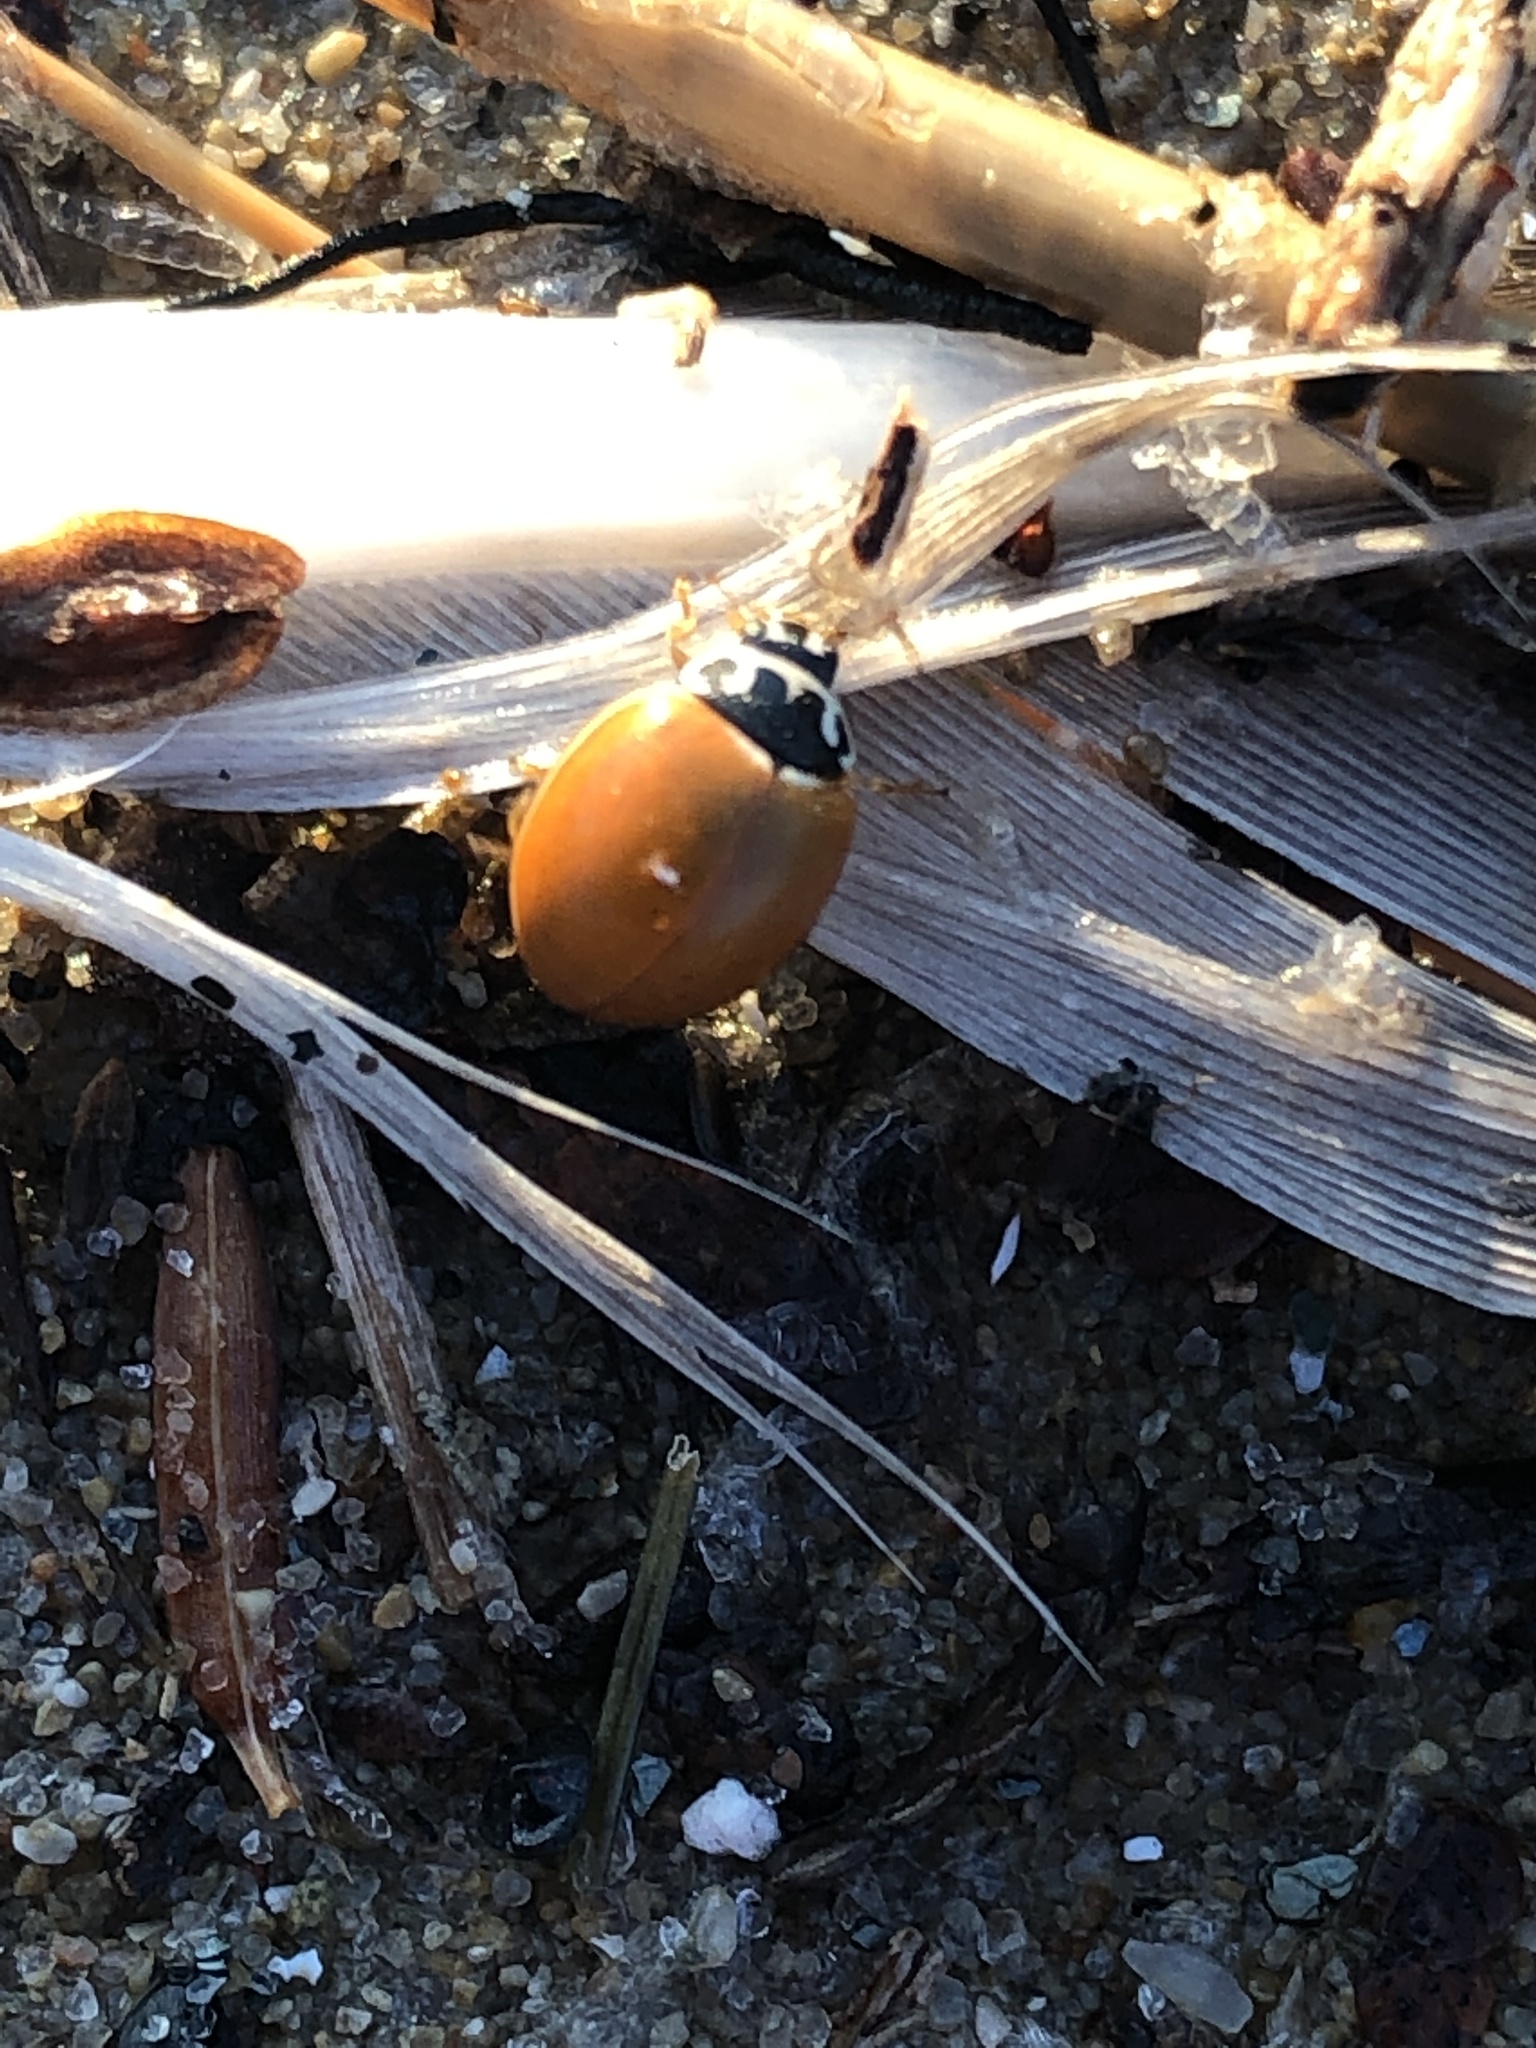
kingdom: Animalia
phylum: Arthropoda
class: Insecta
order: Coleoptera
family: Coccinellidae
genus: Cycloneda
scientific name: Cycloneda munda
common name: Polished lady beetle
